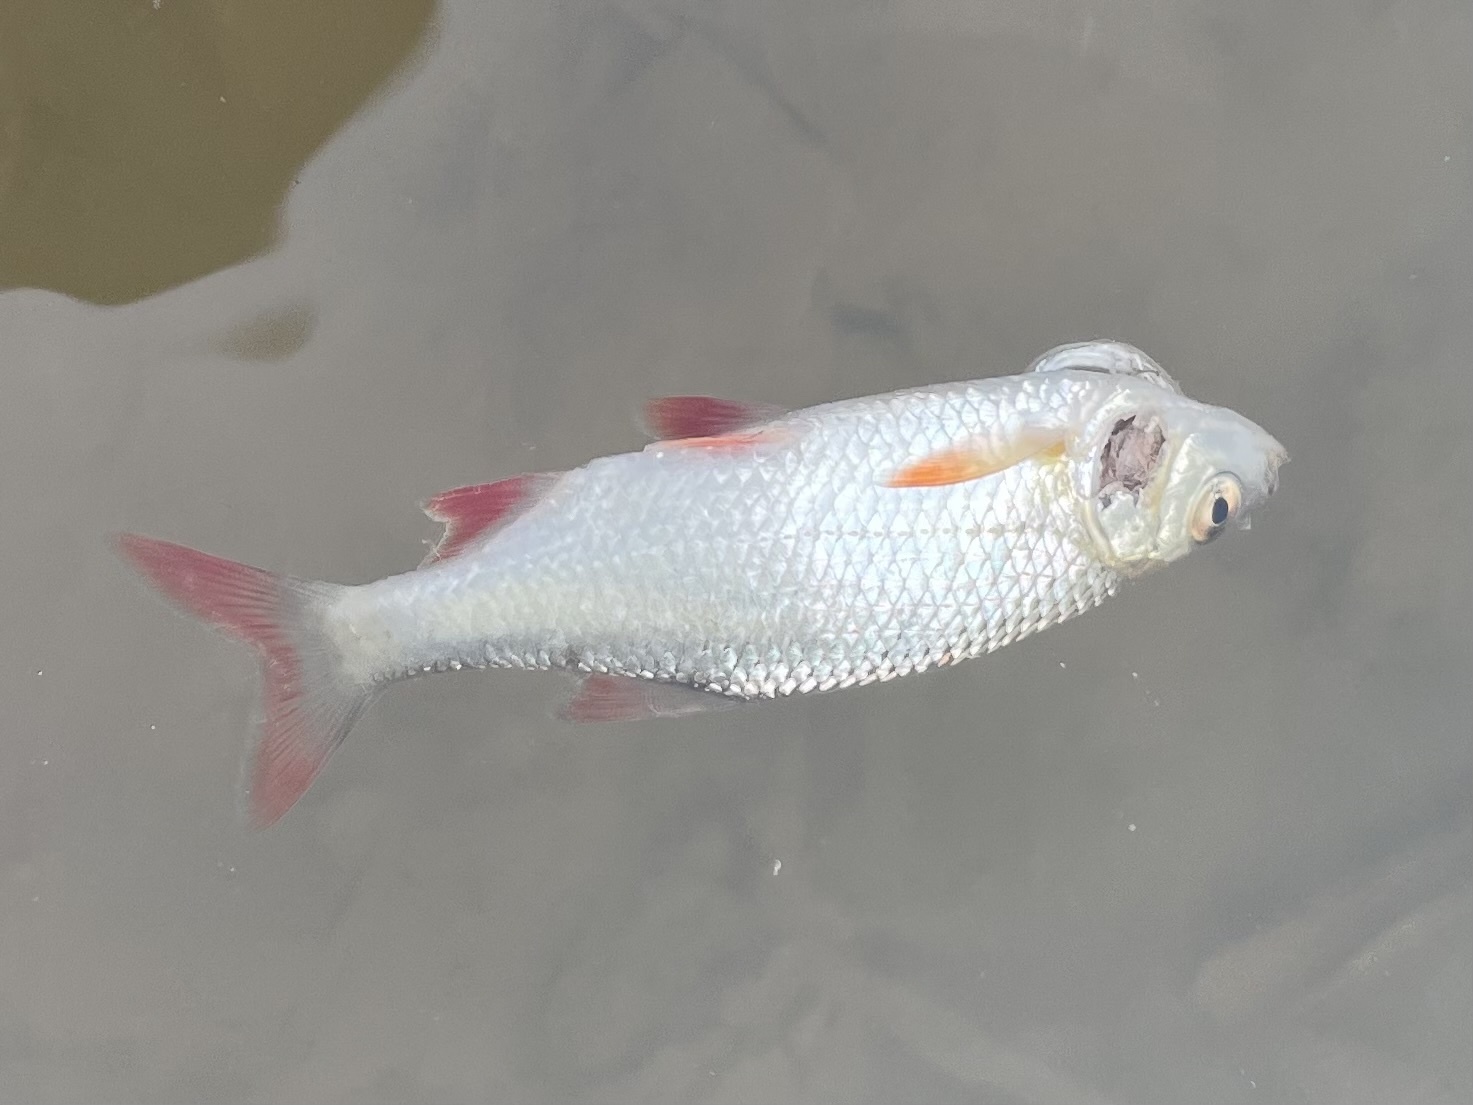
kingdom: Animalia
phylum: Chordata
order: Cypriniformes
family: Cyprinidae
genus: Scardinius
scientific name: Scardinius erythrophthalmus
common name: Rudd
